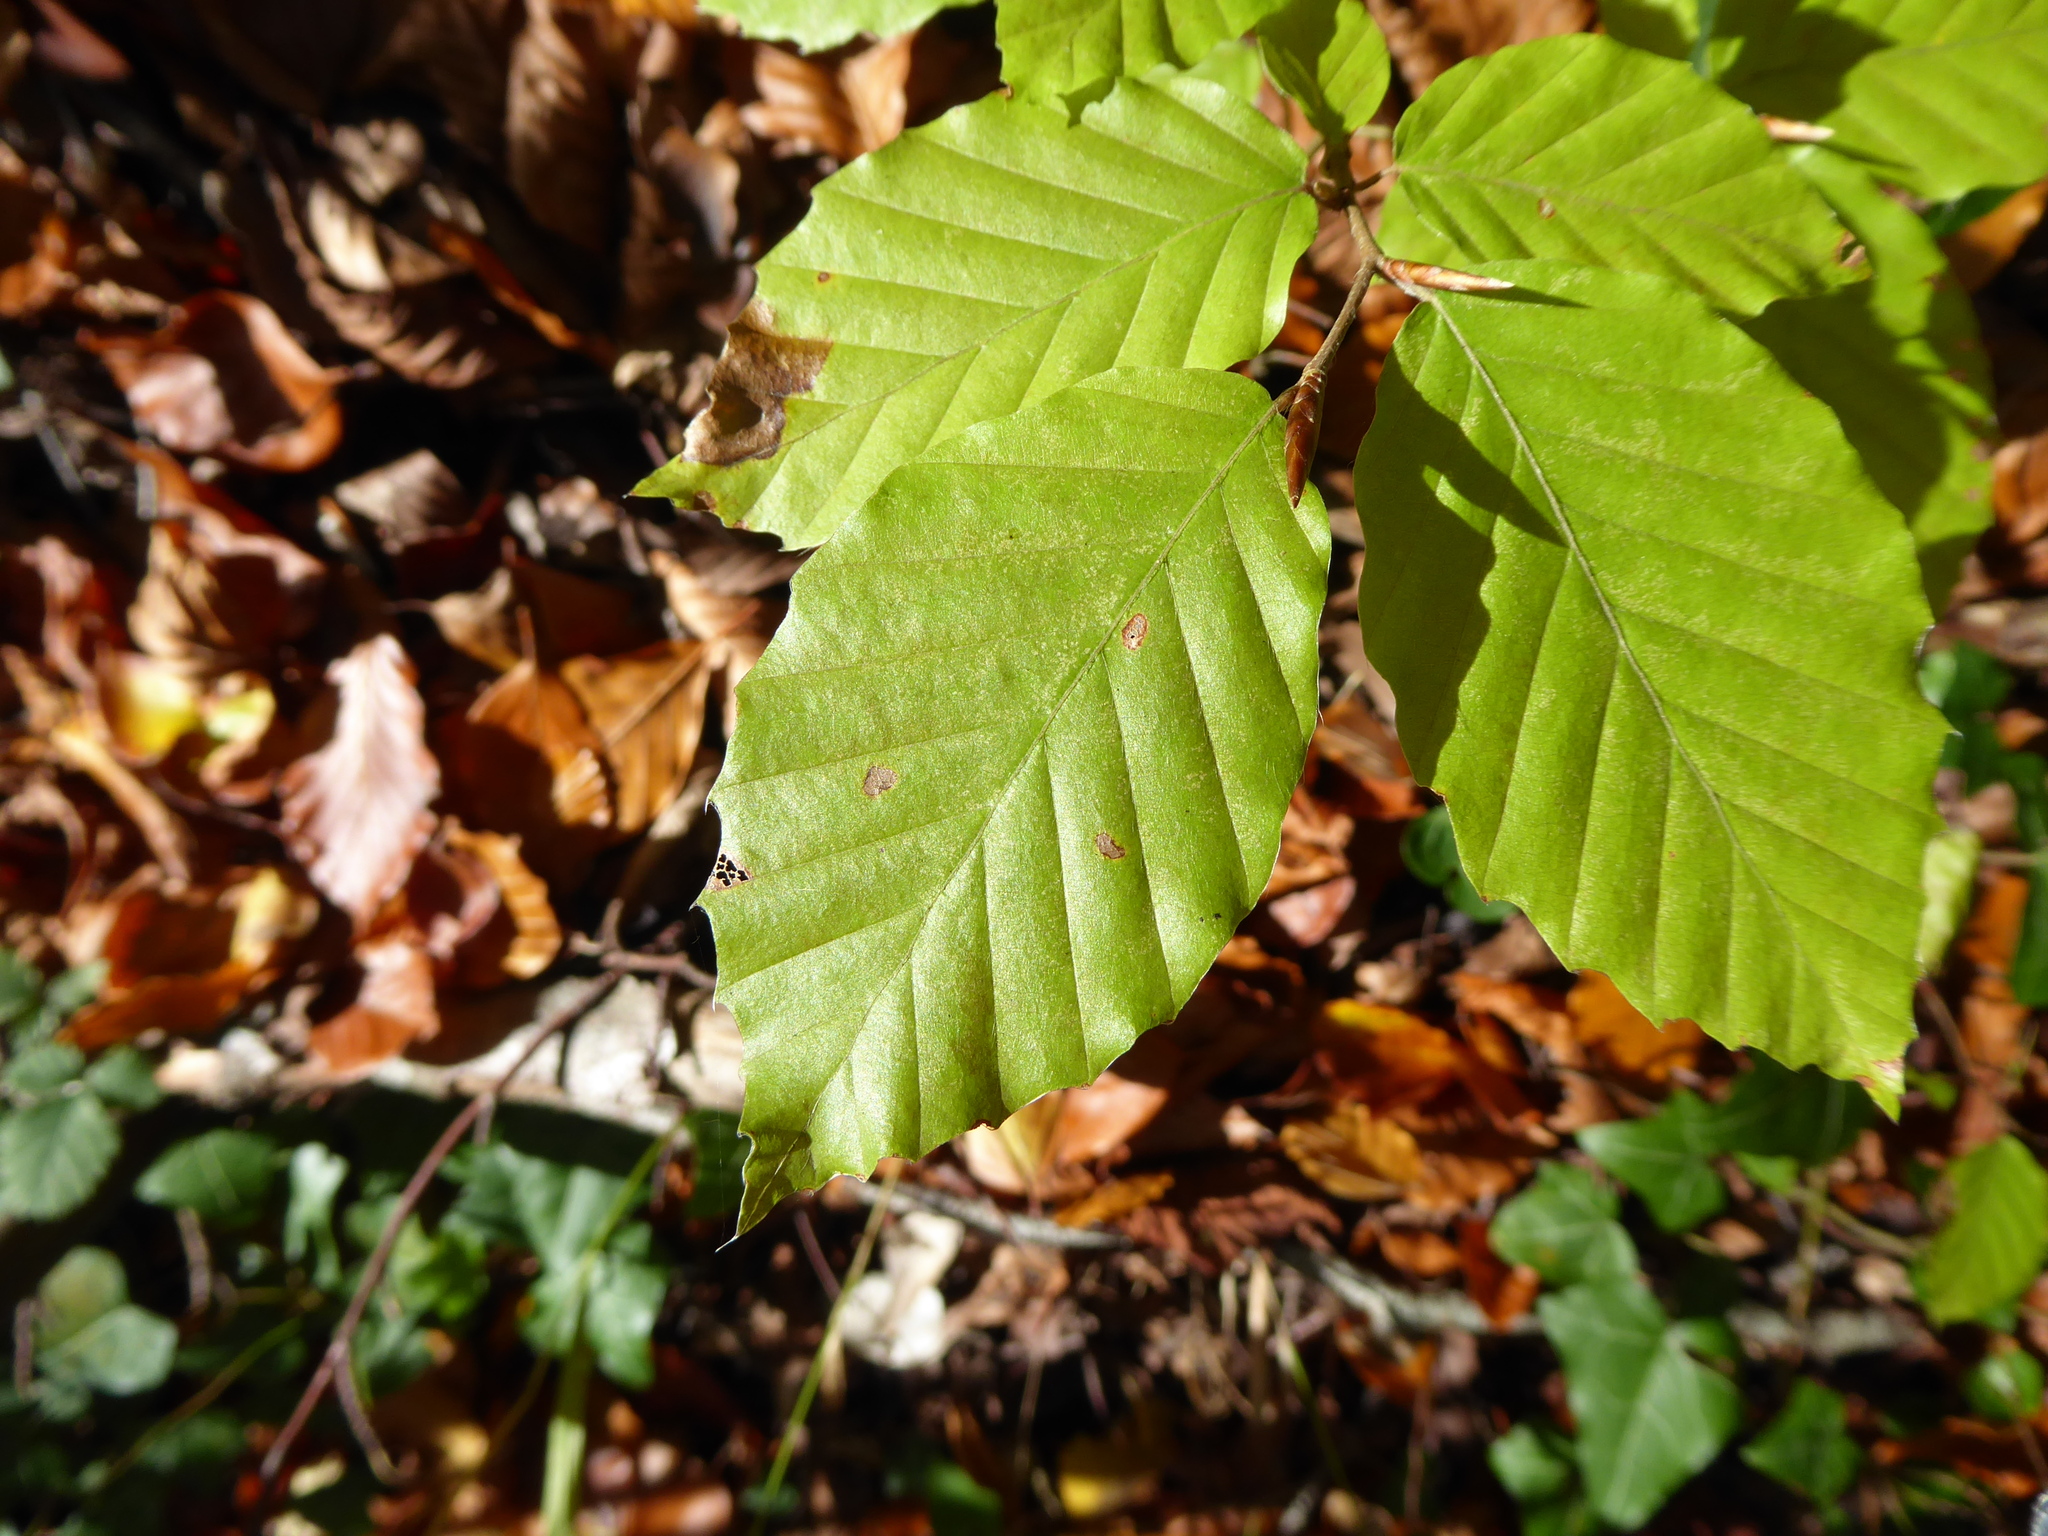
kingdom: Plantae
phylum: Tracheophyta
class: Magnoliopsida
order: Fagales
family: Fagaceae
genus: Fagus
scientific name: Fagus sylvatica
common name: Beech
